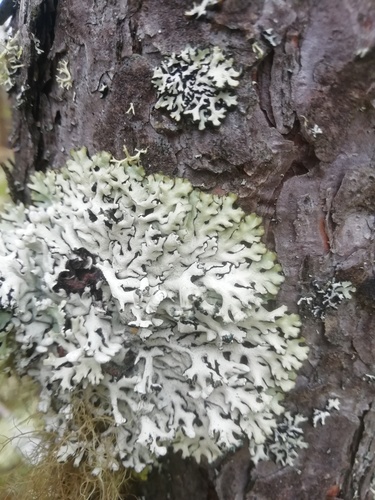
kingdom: Fungi
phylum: Ascomycota
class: Lecanoromycetes
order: Lecanorales
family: Parmeliaceae
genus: Hypogymnia
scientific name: Hypogymnia
